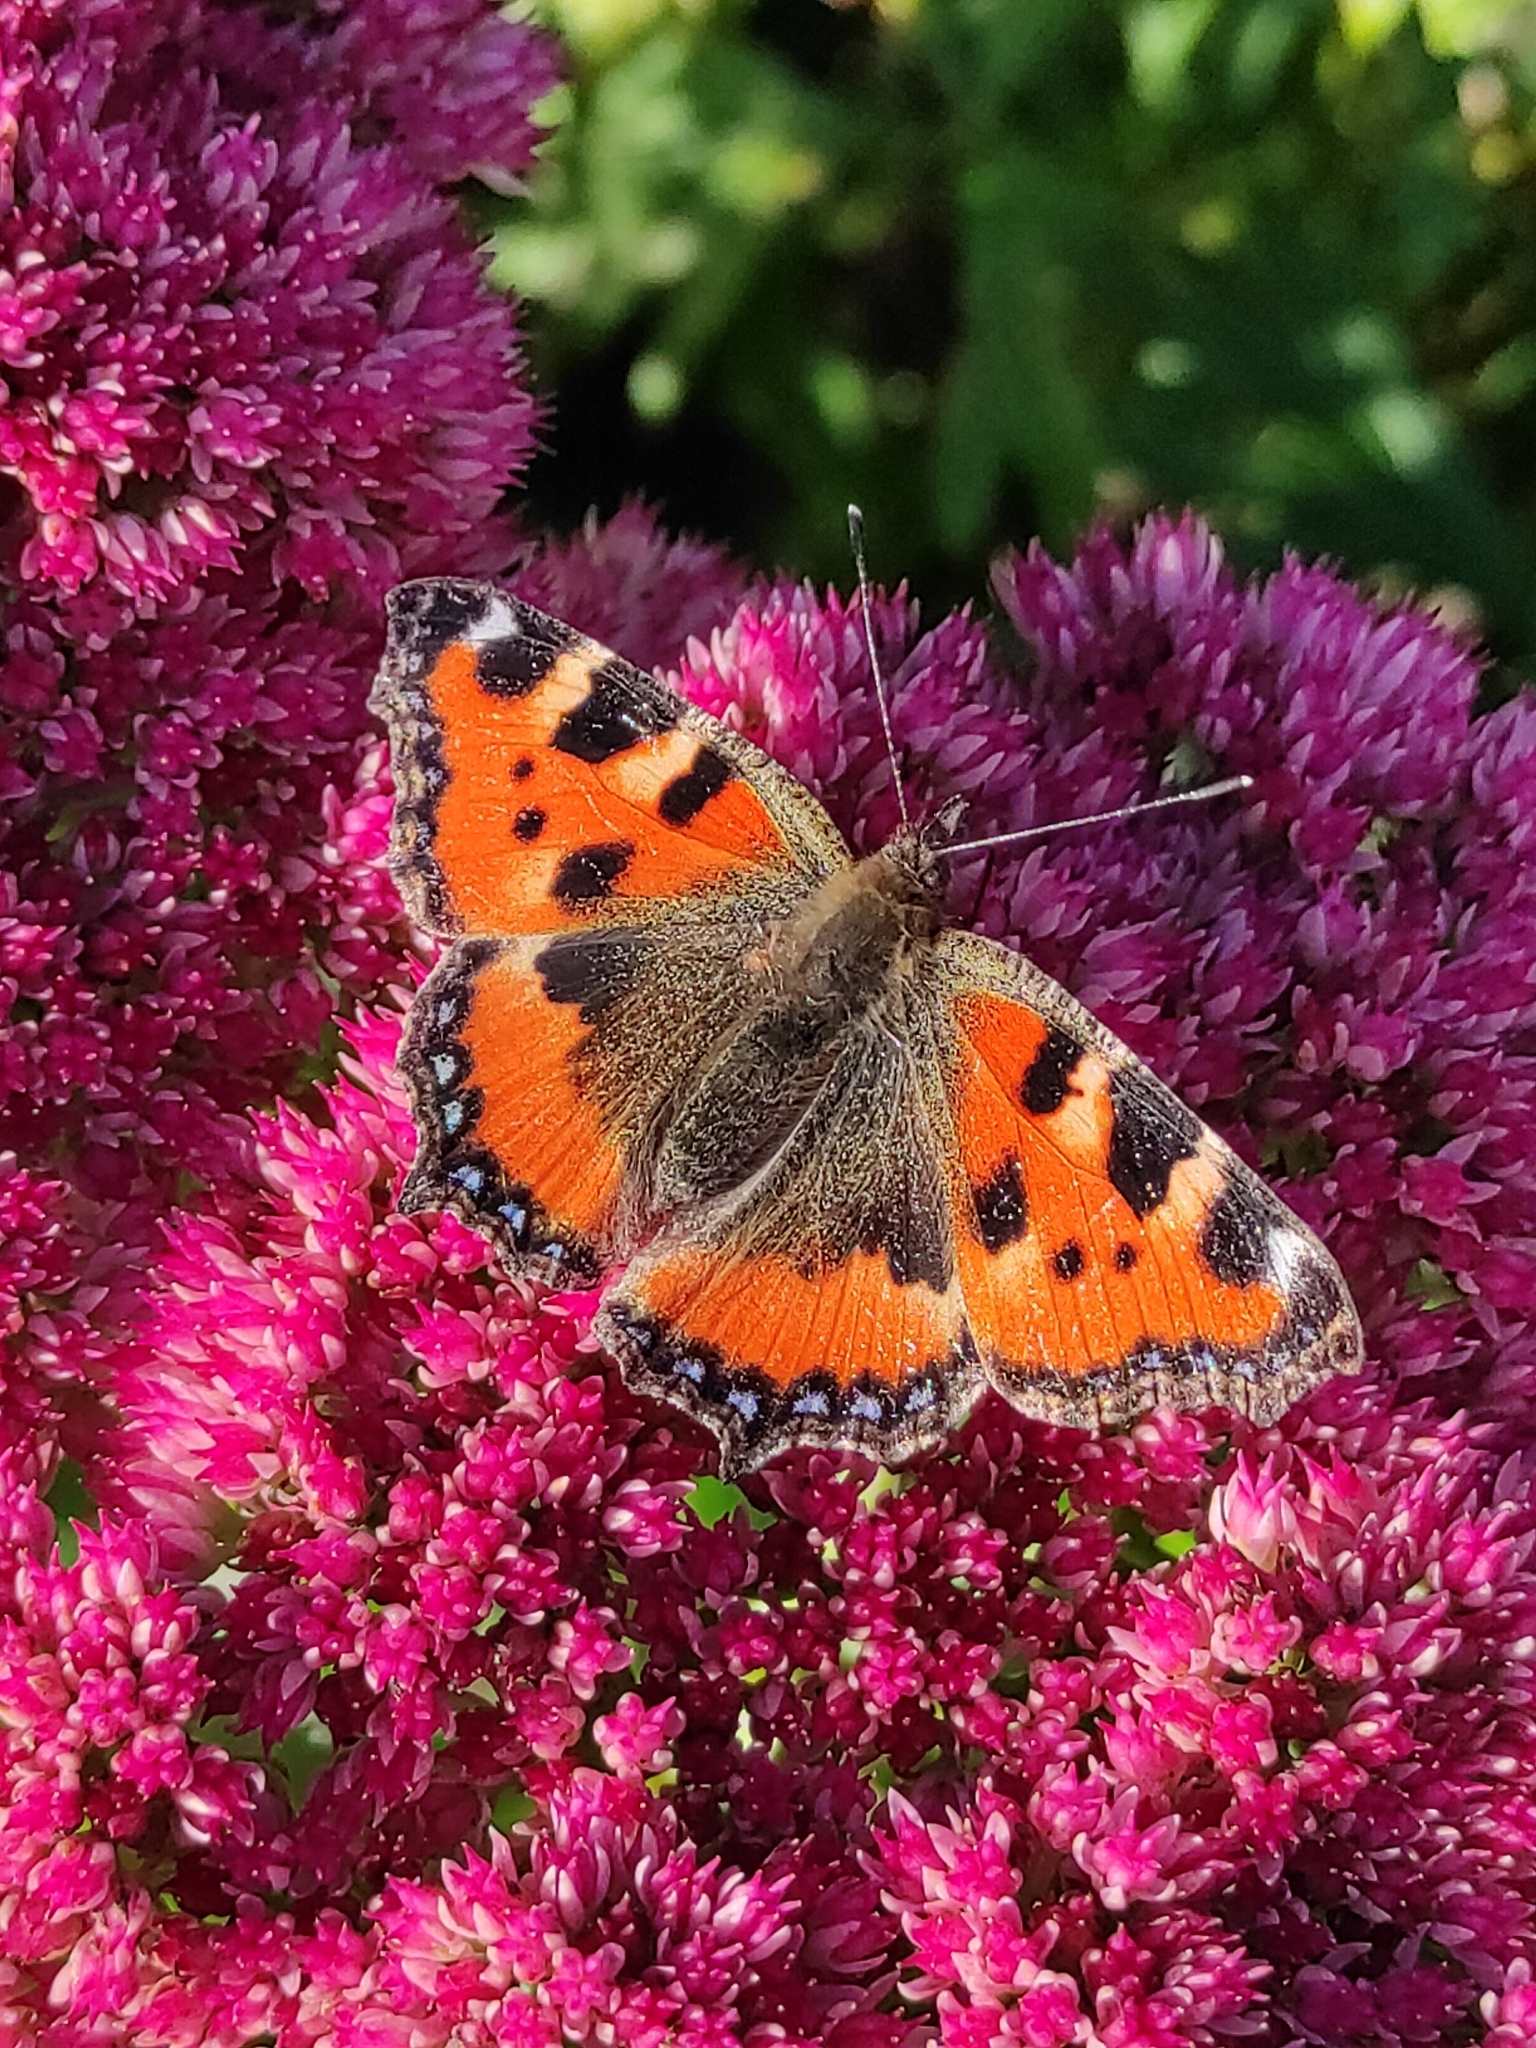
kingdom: Animalia
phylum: Arthropoda
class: Insecta
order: Lepidoptera
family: Nymphalidae
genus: Aglais
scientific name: Aglais urticae
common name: Small tortoiseshell
